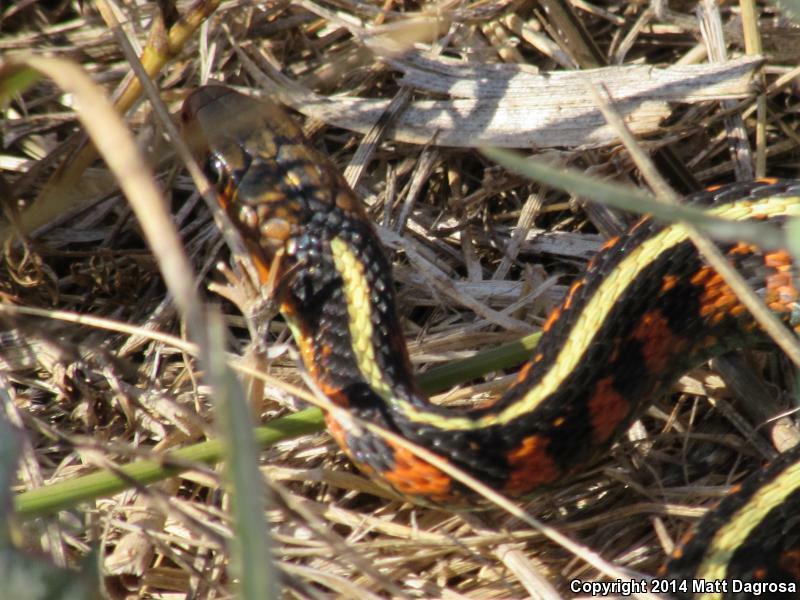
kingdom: Animalia
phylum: Chordata
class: Squamata
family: Colubridae
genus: Thamnophis
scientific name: Thamnophis sirtalis
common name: Common garter snake
